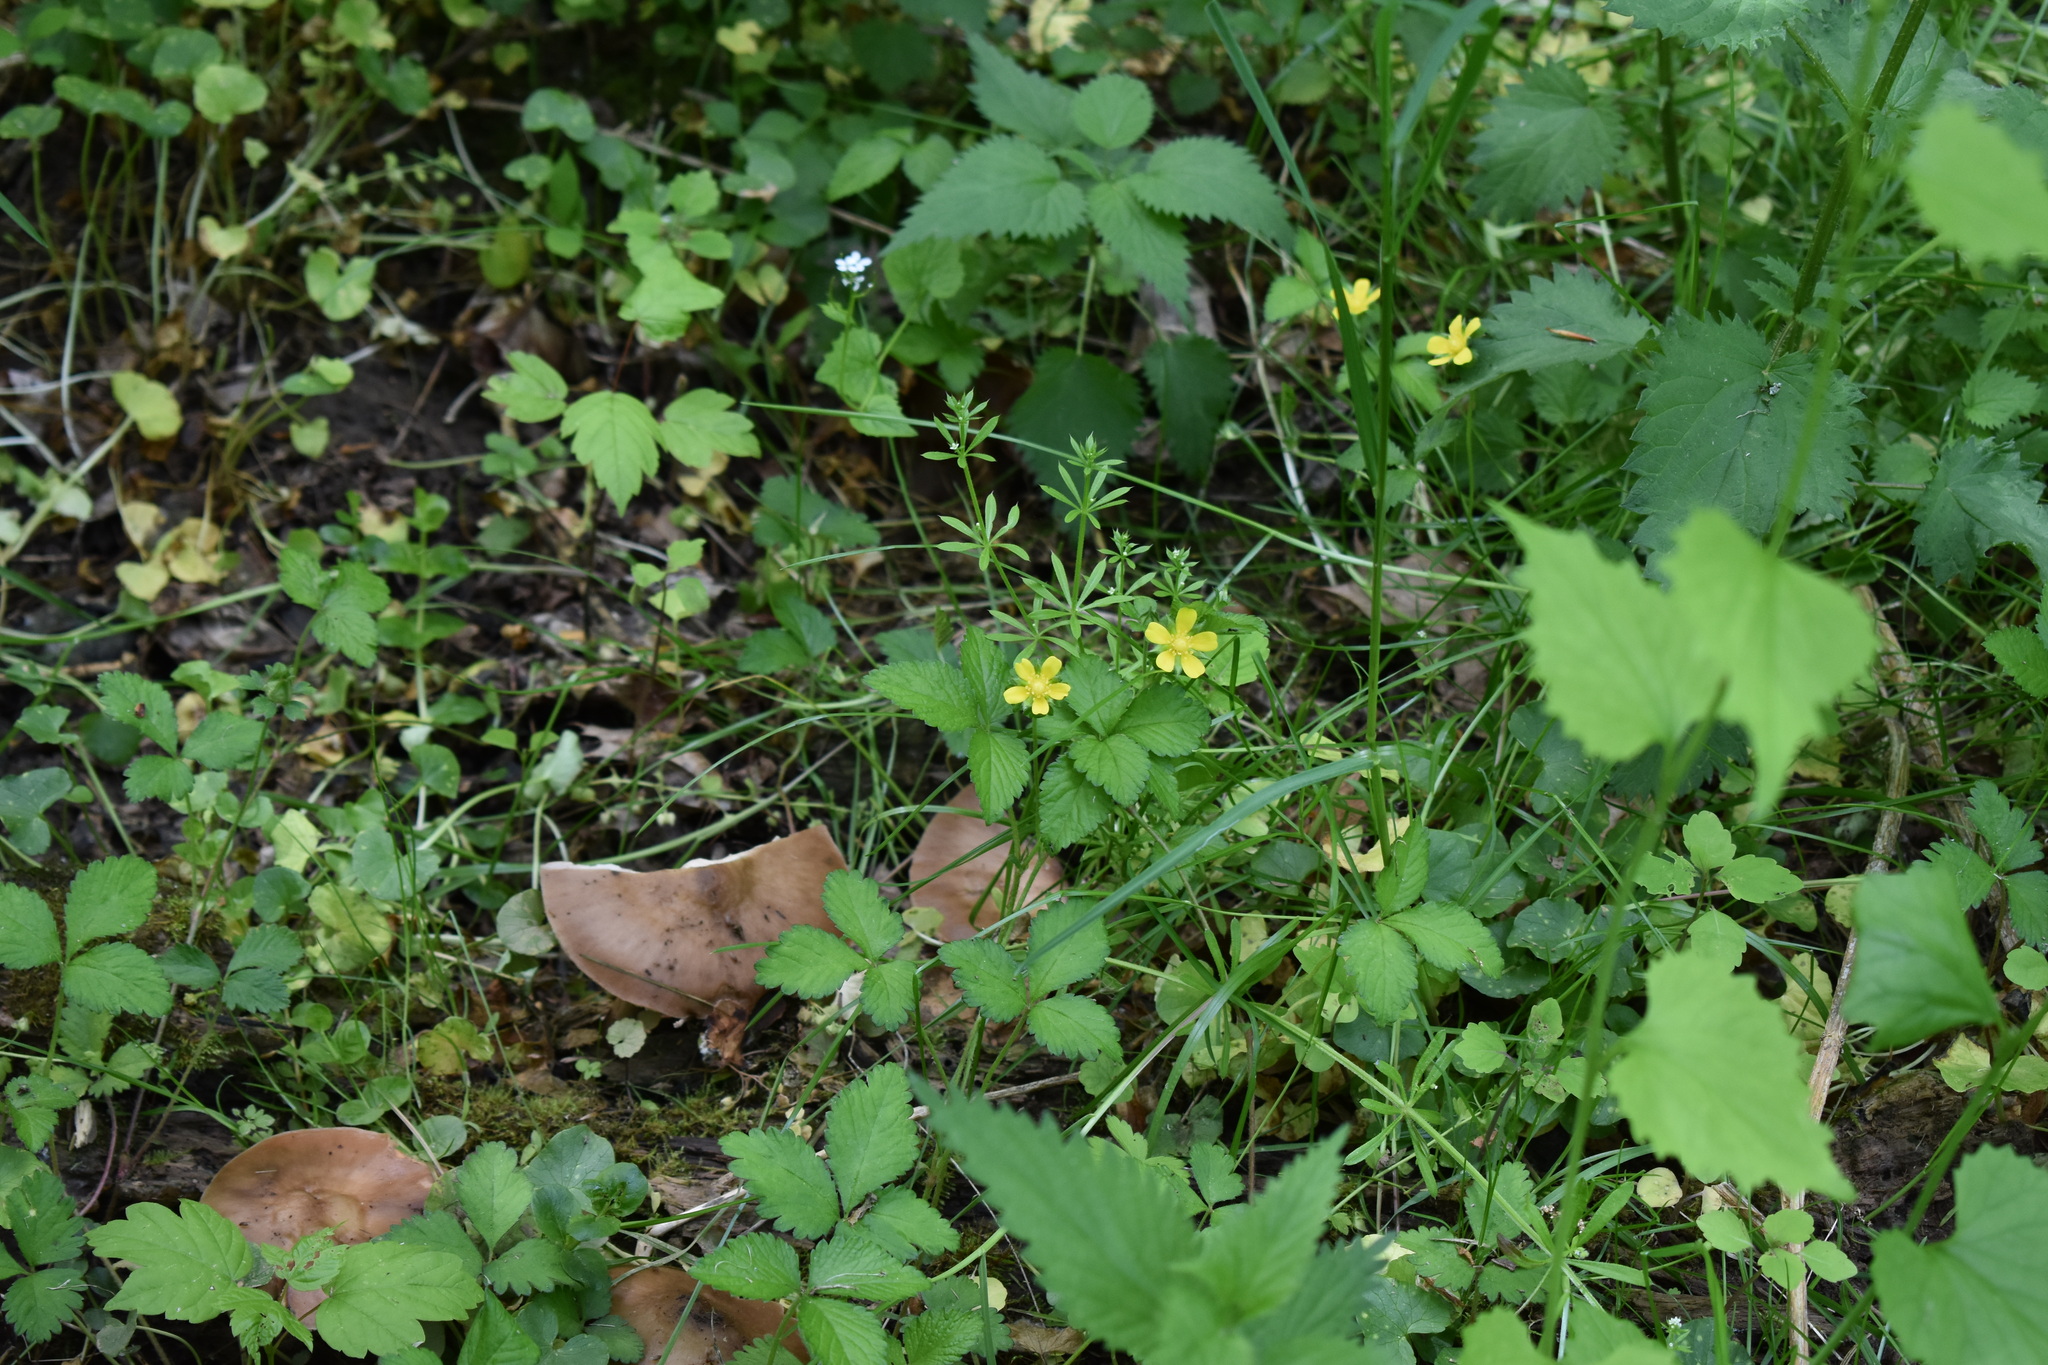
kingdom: Plantae
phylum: Tracheophyta
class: Magnoliopsida
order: Rosales
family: Rosaceae
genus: Potentilla
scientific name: Potentilla indica
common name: Yellow-flowered strawberry
